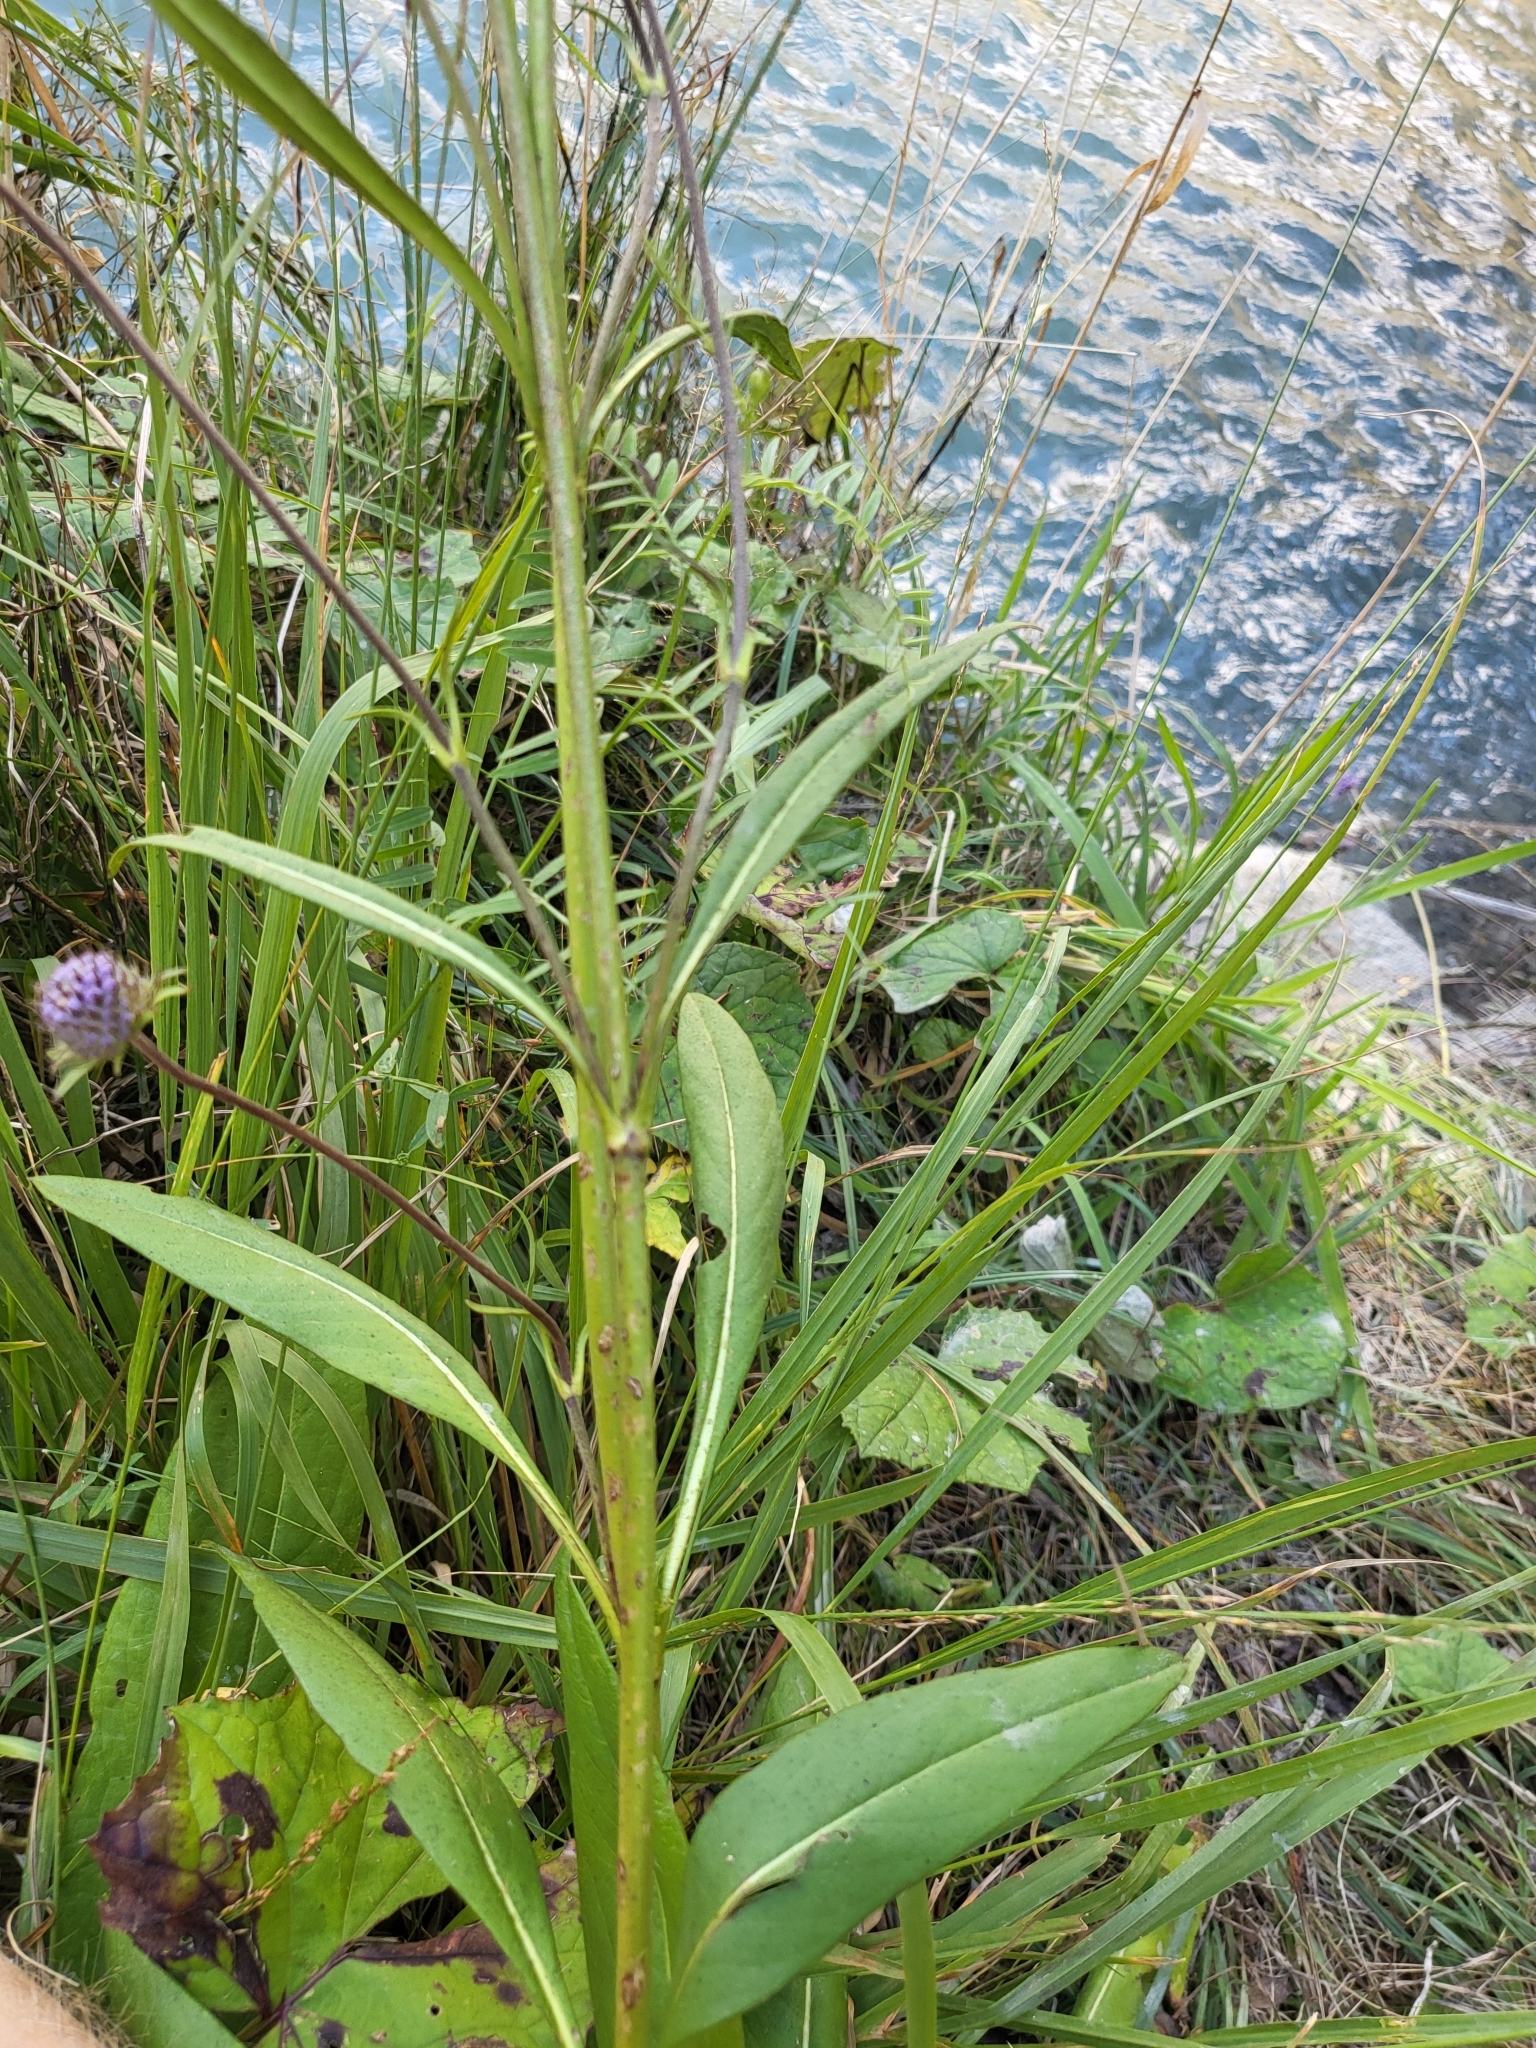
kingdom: Plantae
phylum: Tracheophyta
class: Magnoliopsida
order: Dipsacales
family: Caprifoliaceae
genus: Succisa
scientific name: Succisa pratensis
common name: Devil's-bit
